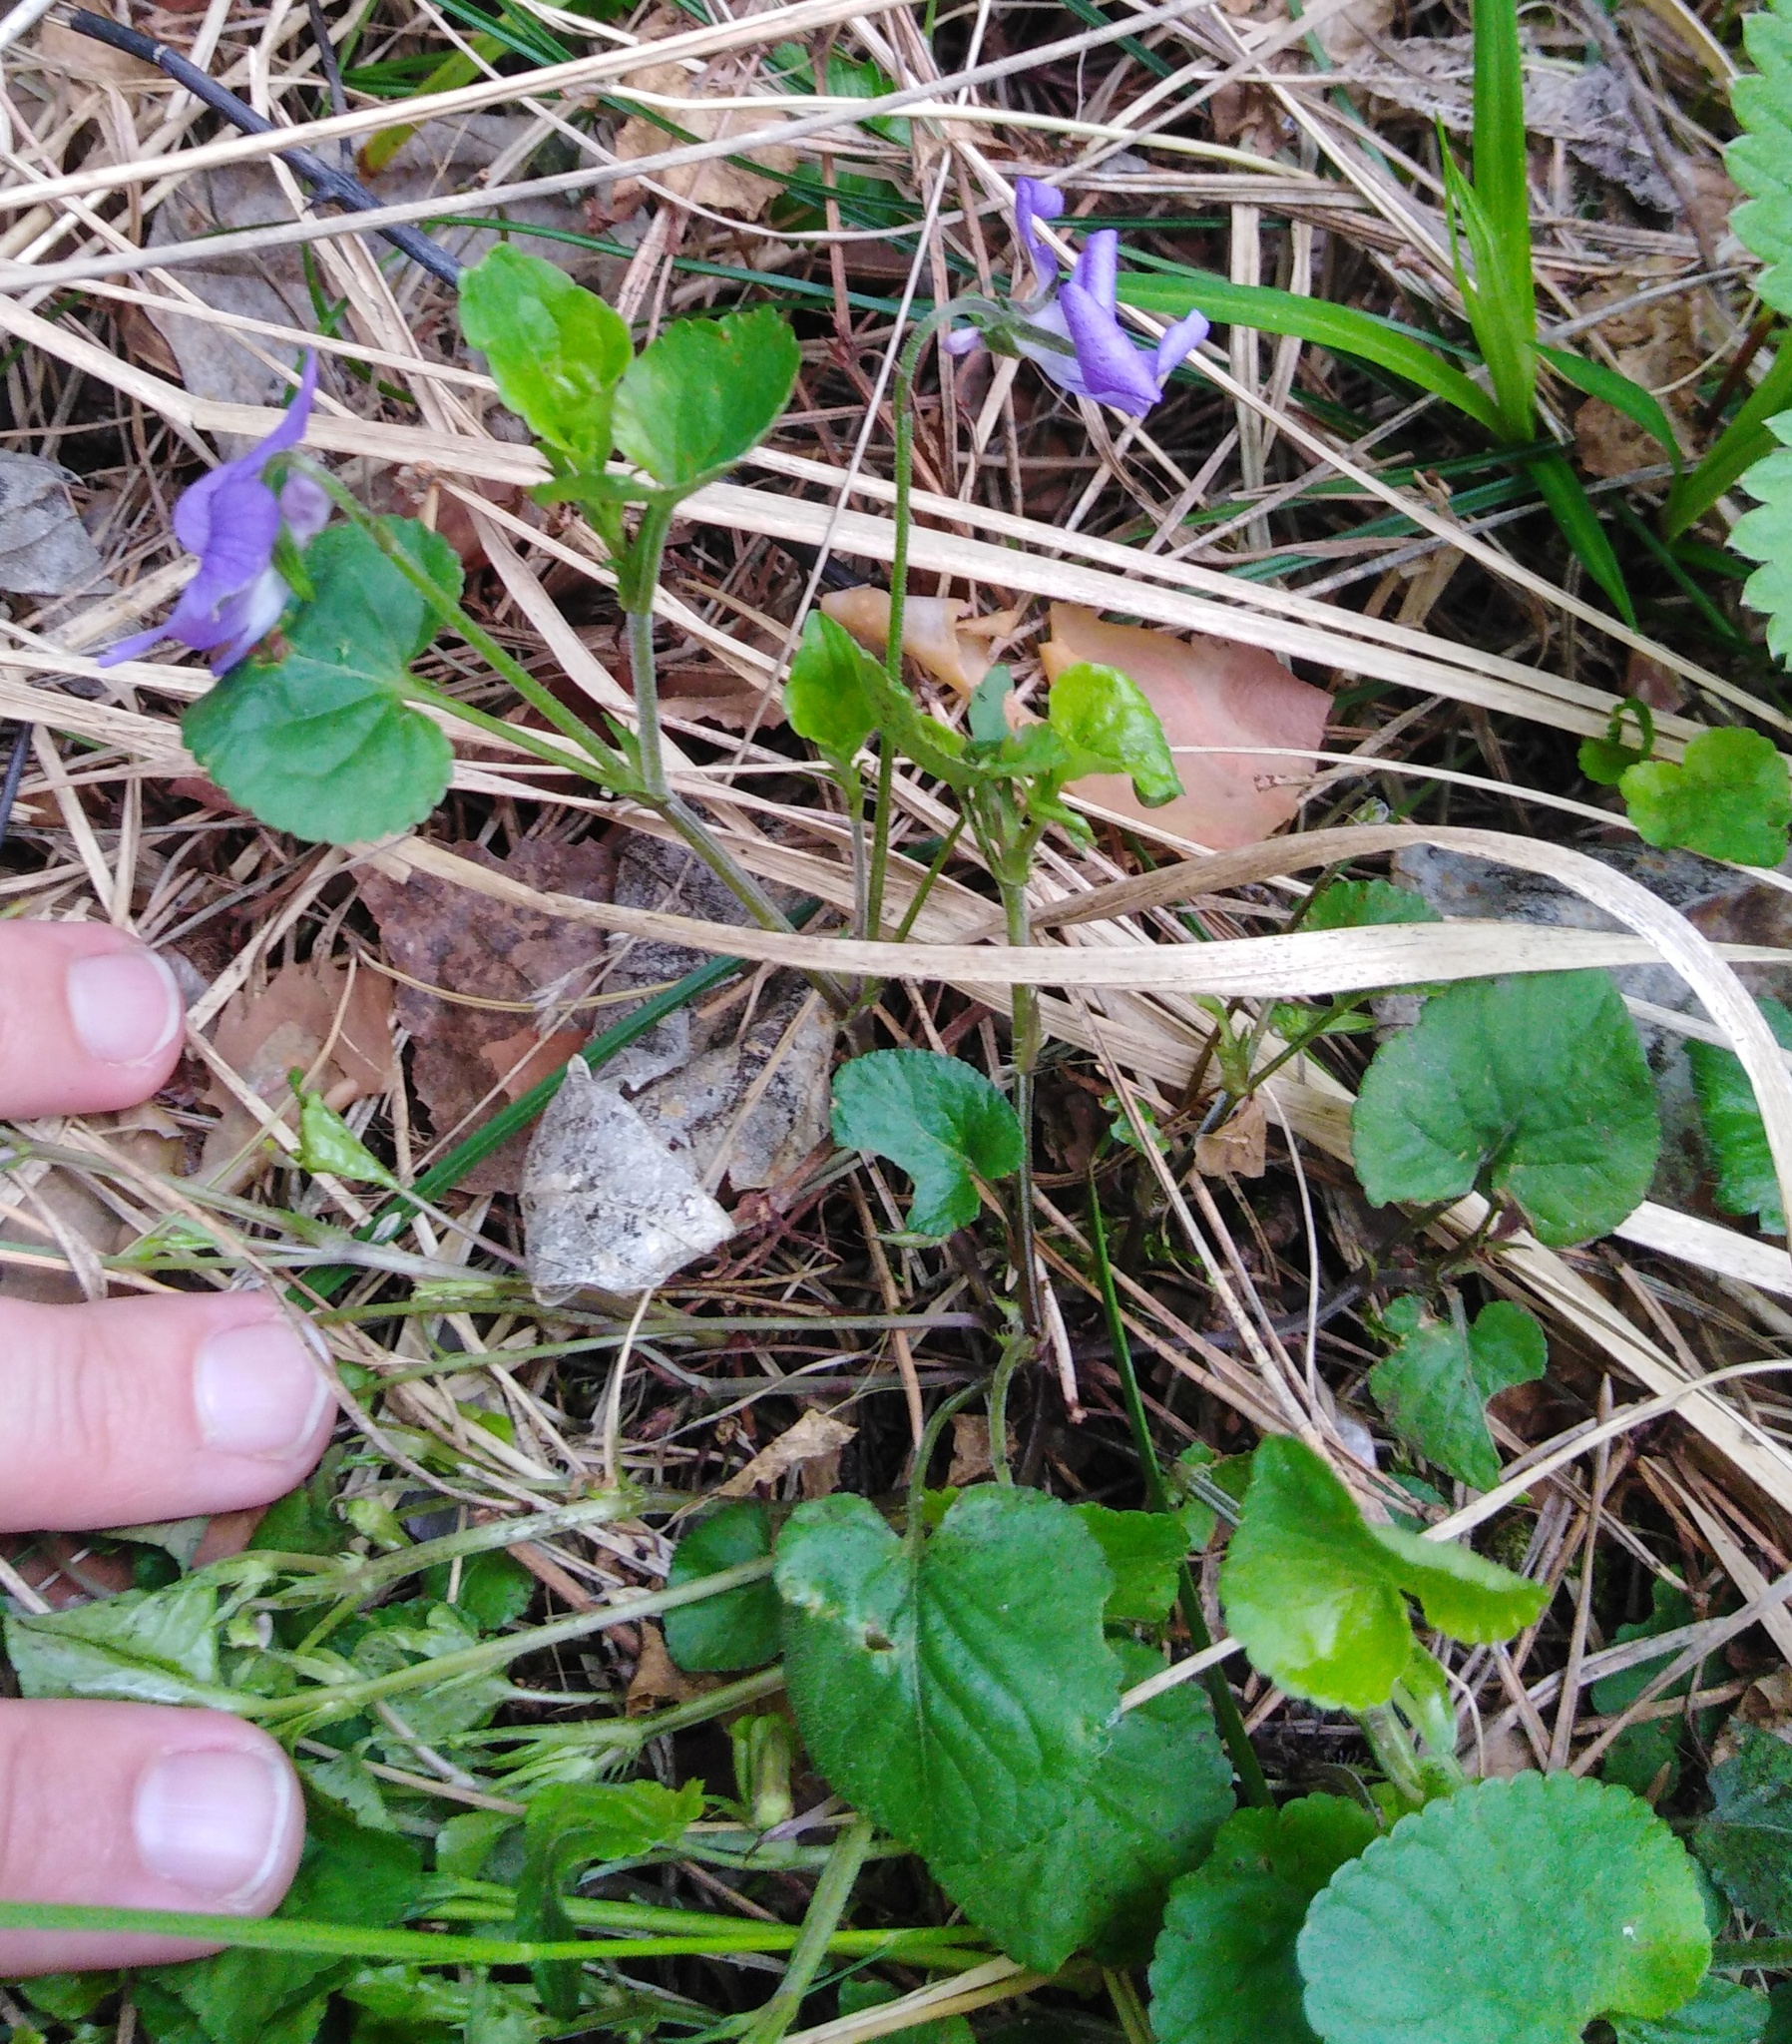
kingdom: Plantae
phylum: Tracheophyta
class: Magnoliopsida
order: Malpighiales
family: Violaceae
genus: Viola
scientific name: Viola rupestris
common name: Teesdale violet
